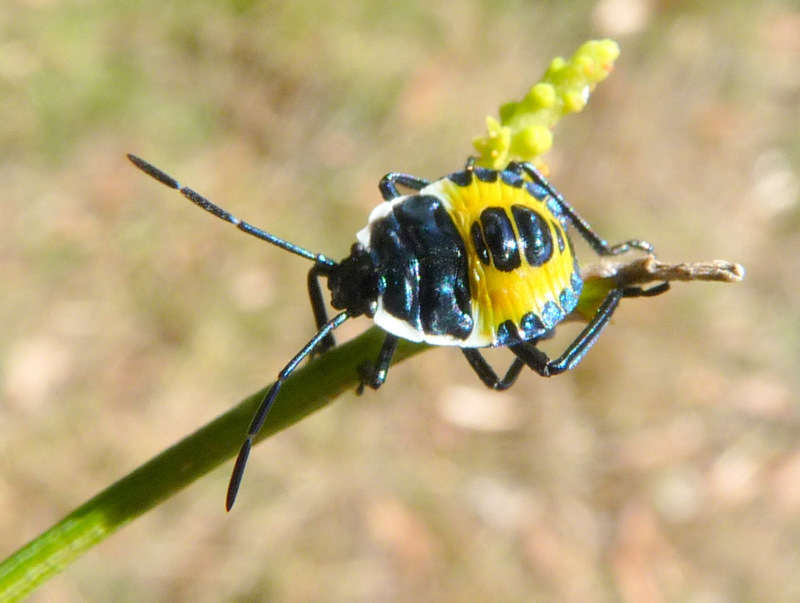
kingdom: Animalia
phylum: Arthropoda
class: Insecta
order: Hemiptera
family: Pentatomidae
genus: Commius
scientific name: Commius
